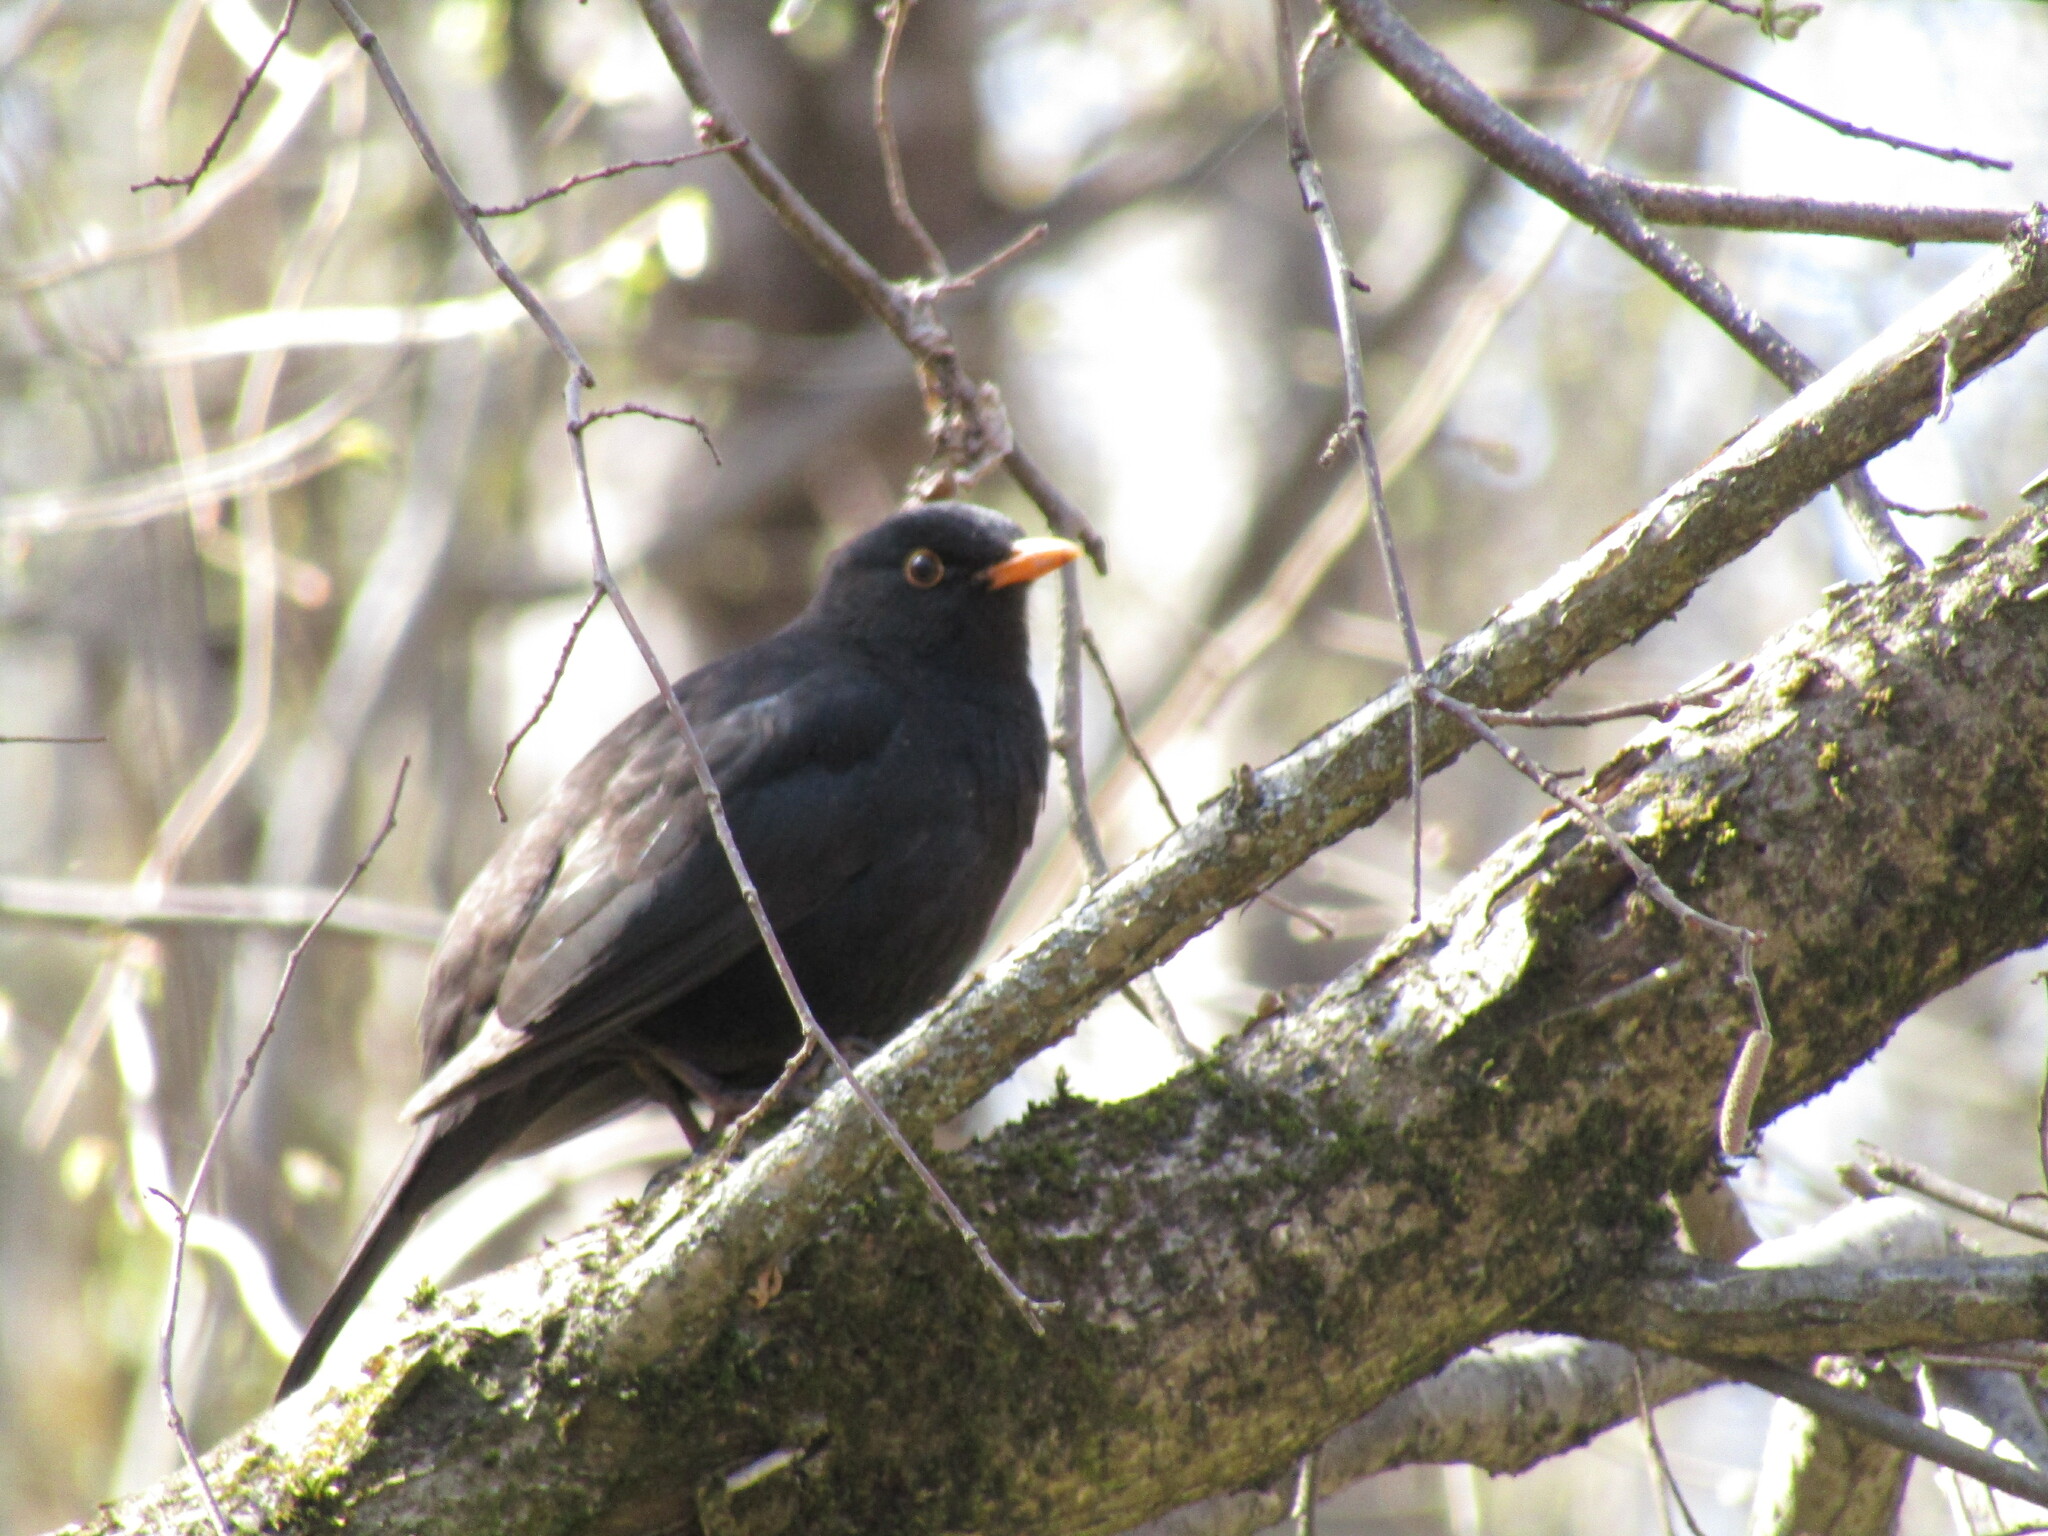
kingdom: Animalia
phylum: Chordata
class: Aves
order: Passeriformes
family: Turdidae
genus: Turdus
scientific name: Turdus merula
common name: Common blackbird
